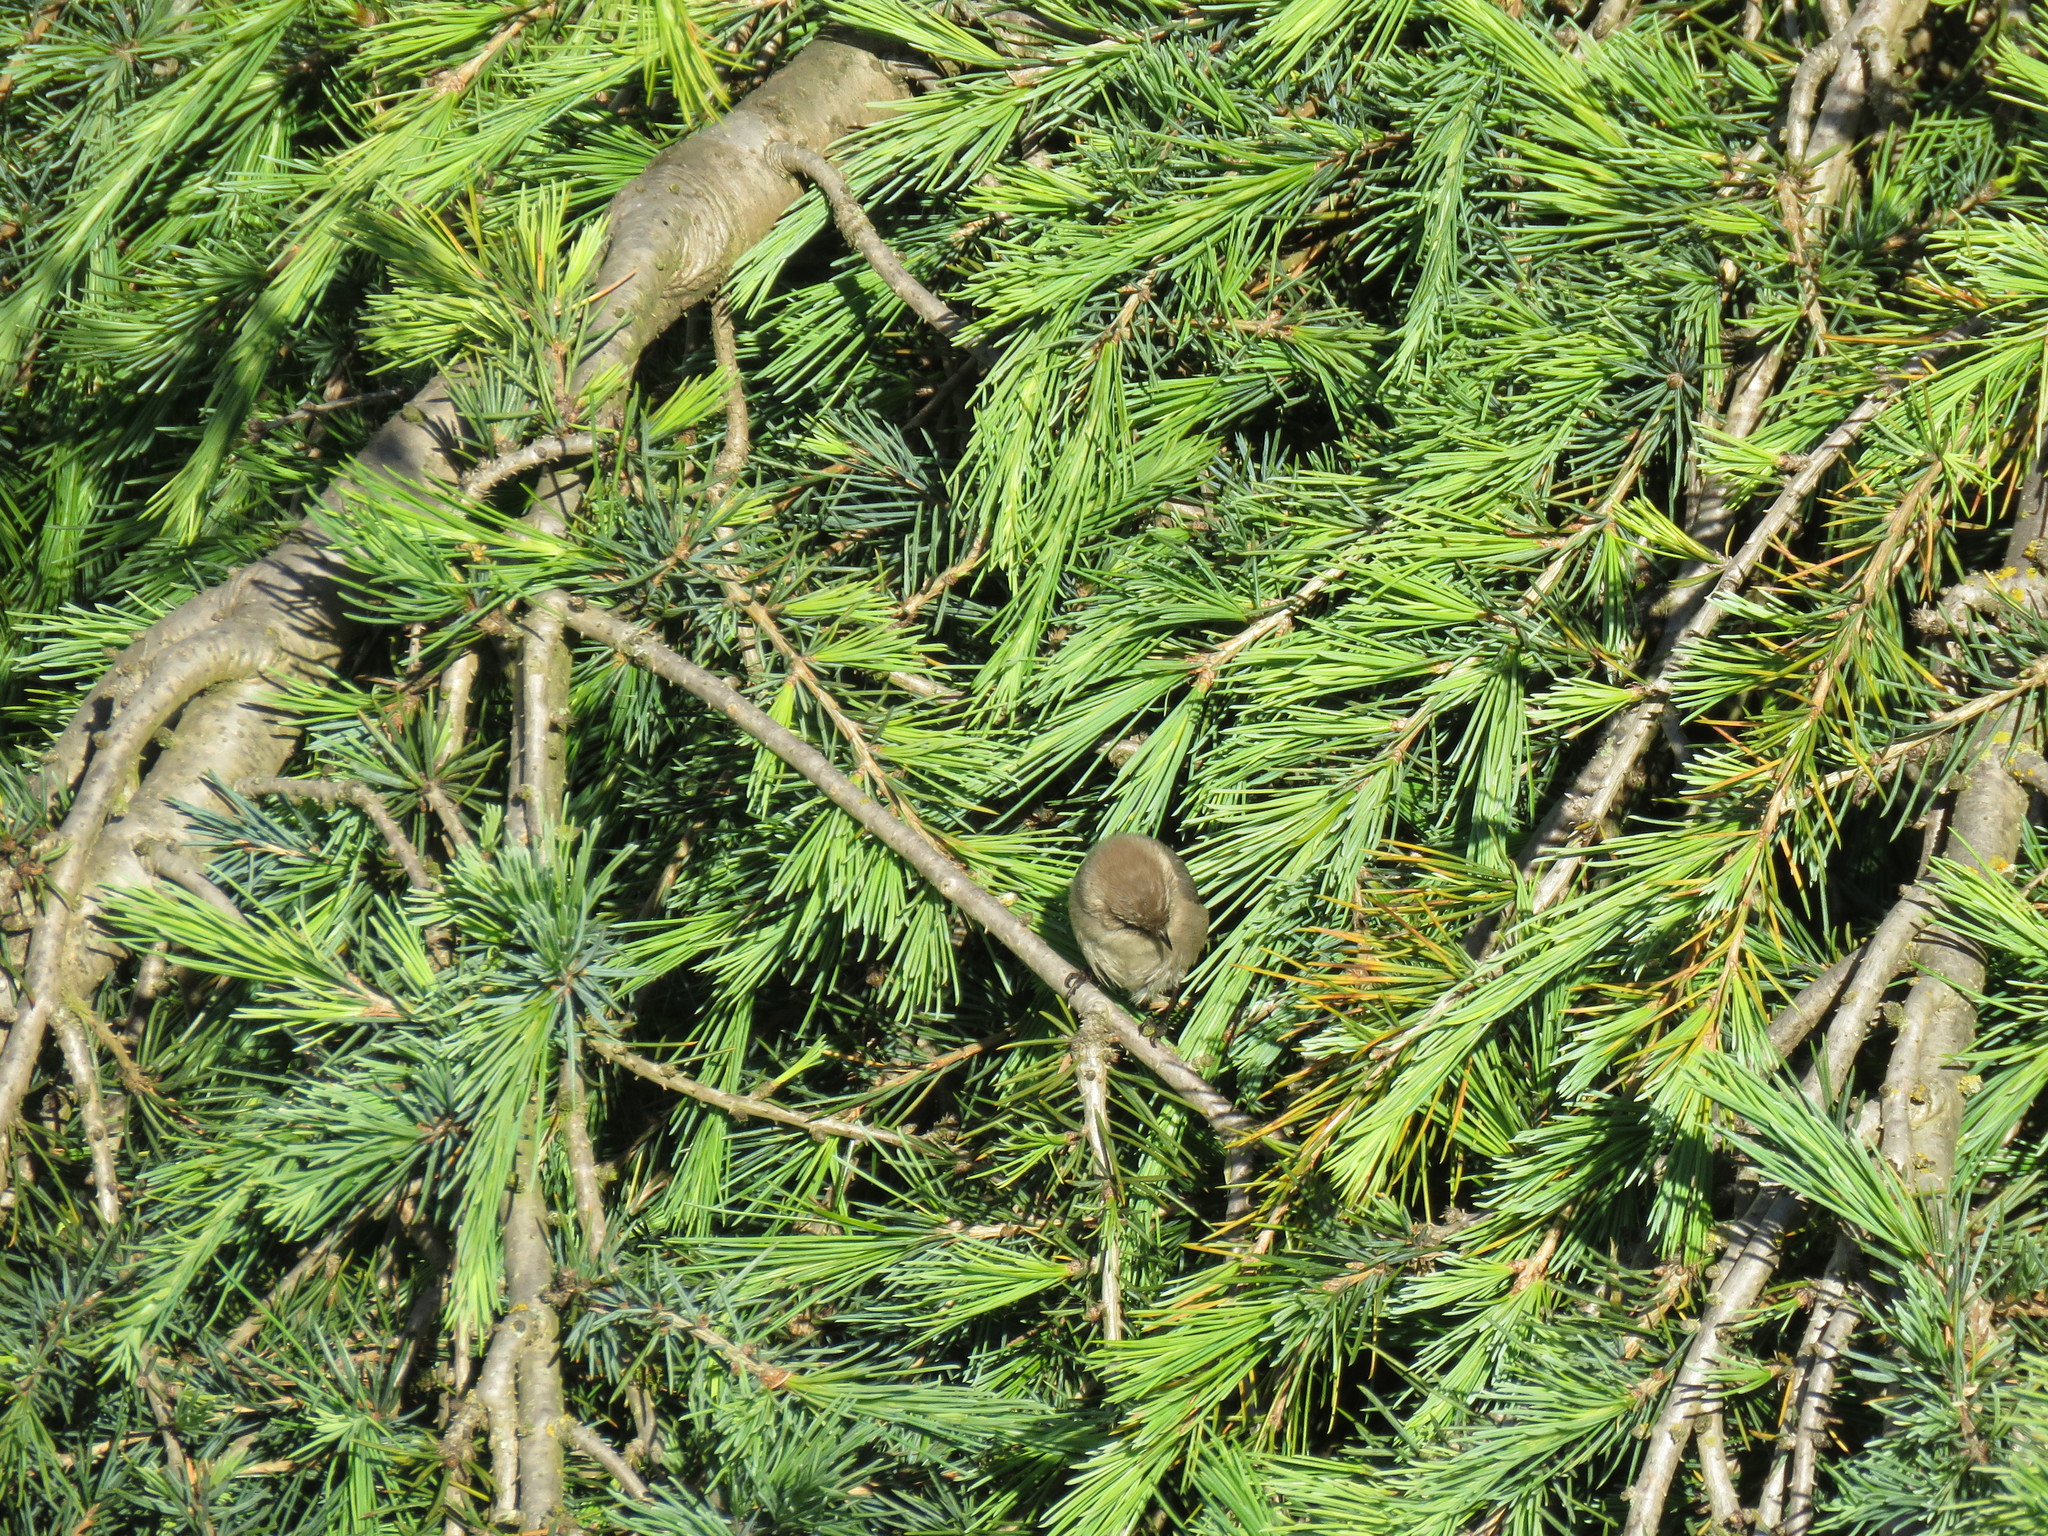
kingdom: Animalia
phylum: Chordata
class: Aves
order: Passeriformes
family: Aegithalidae
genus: Psaltriparus
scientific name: Psaltriparus minimus
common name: American bushtit
